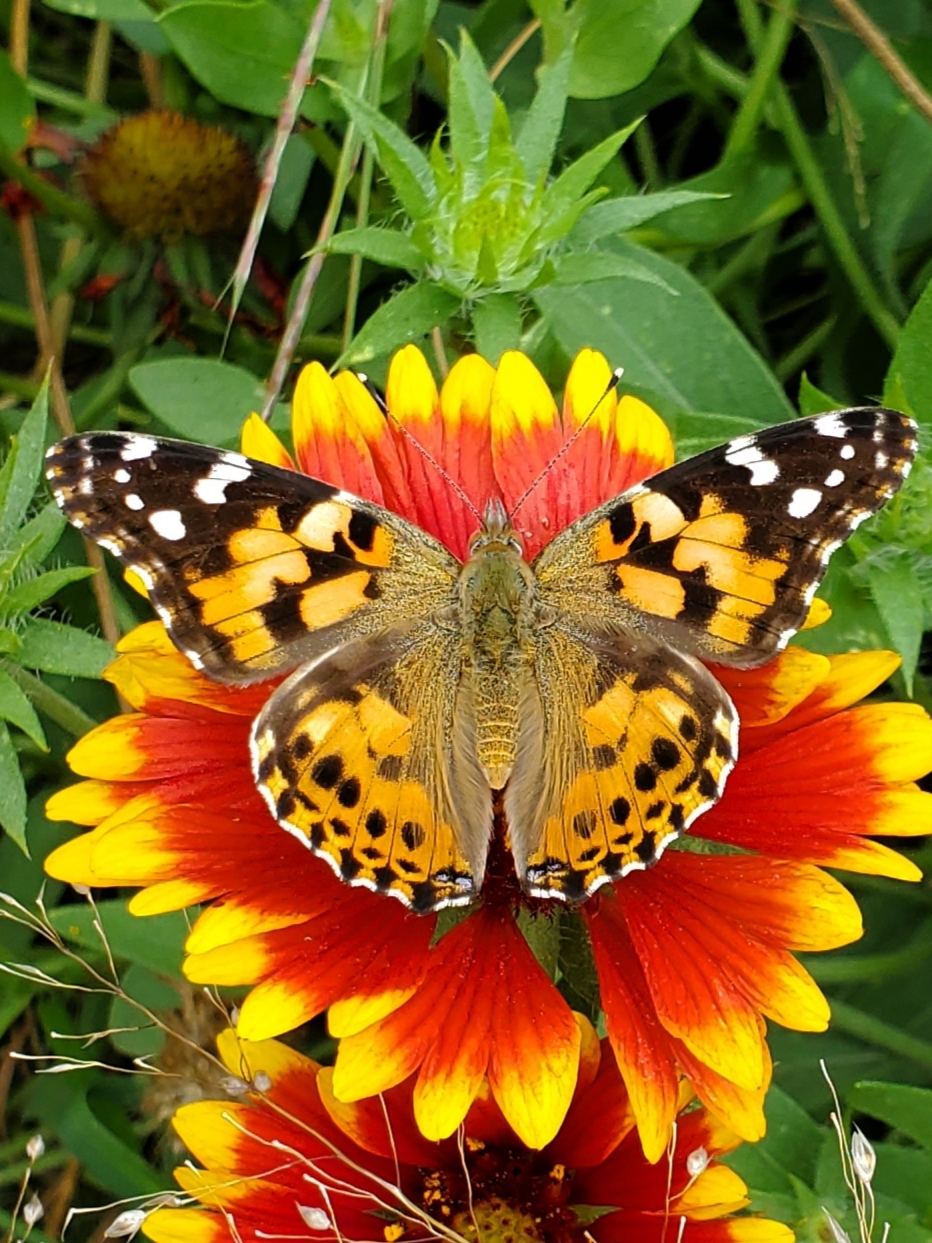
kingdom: Animalia
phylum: Arthropoda
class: Insecta
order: Lepidoptera
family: Nymphalidae
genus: Vanessa
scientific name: Vanessa cardui
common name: Painted lady
